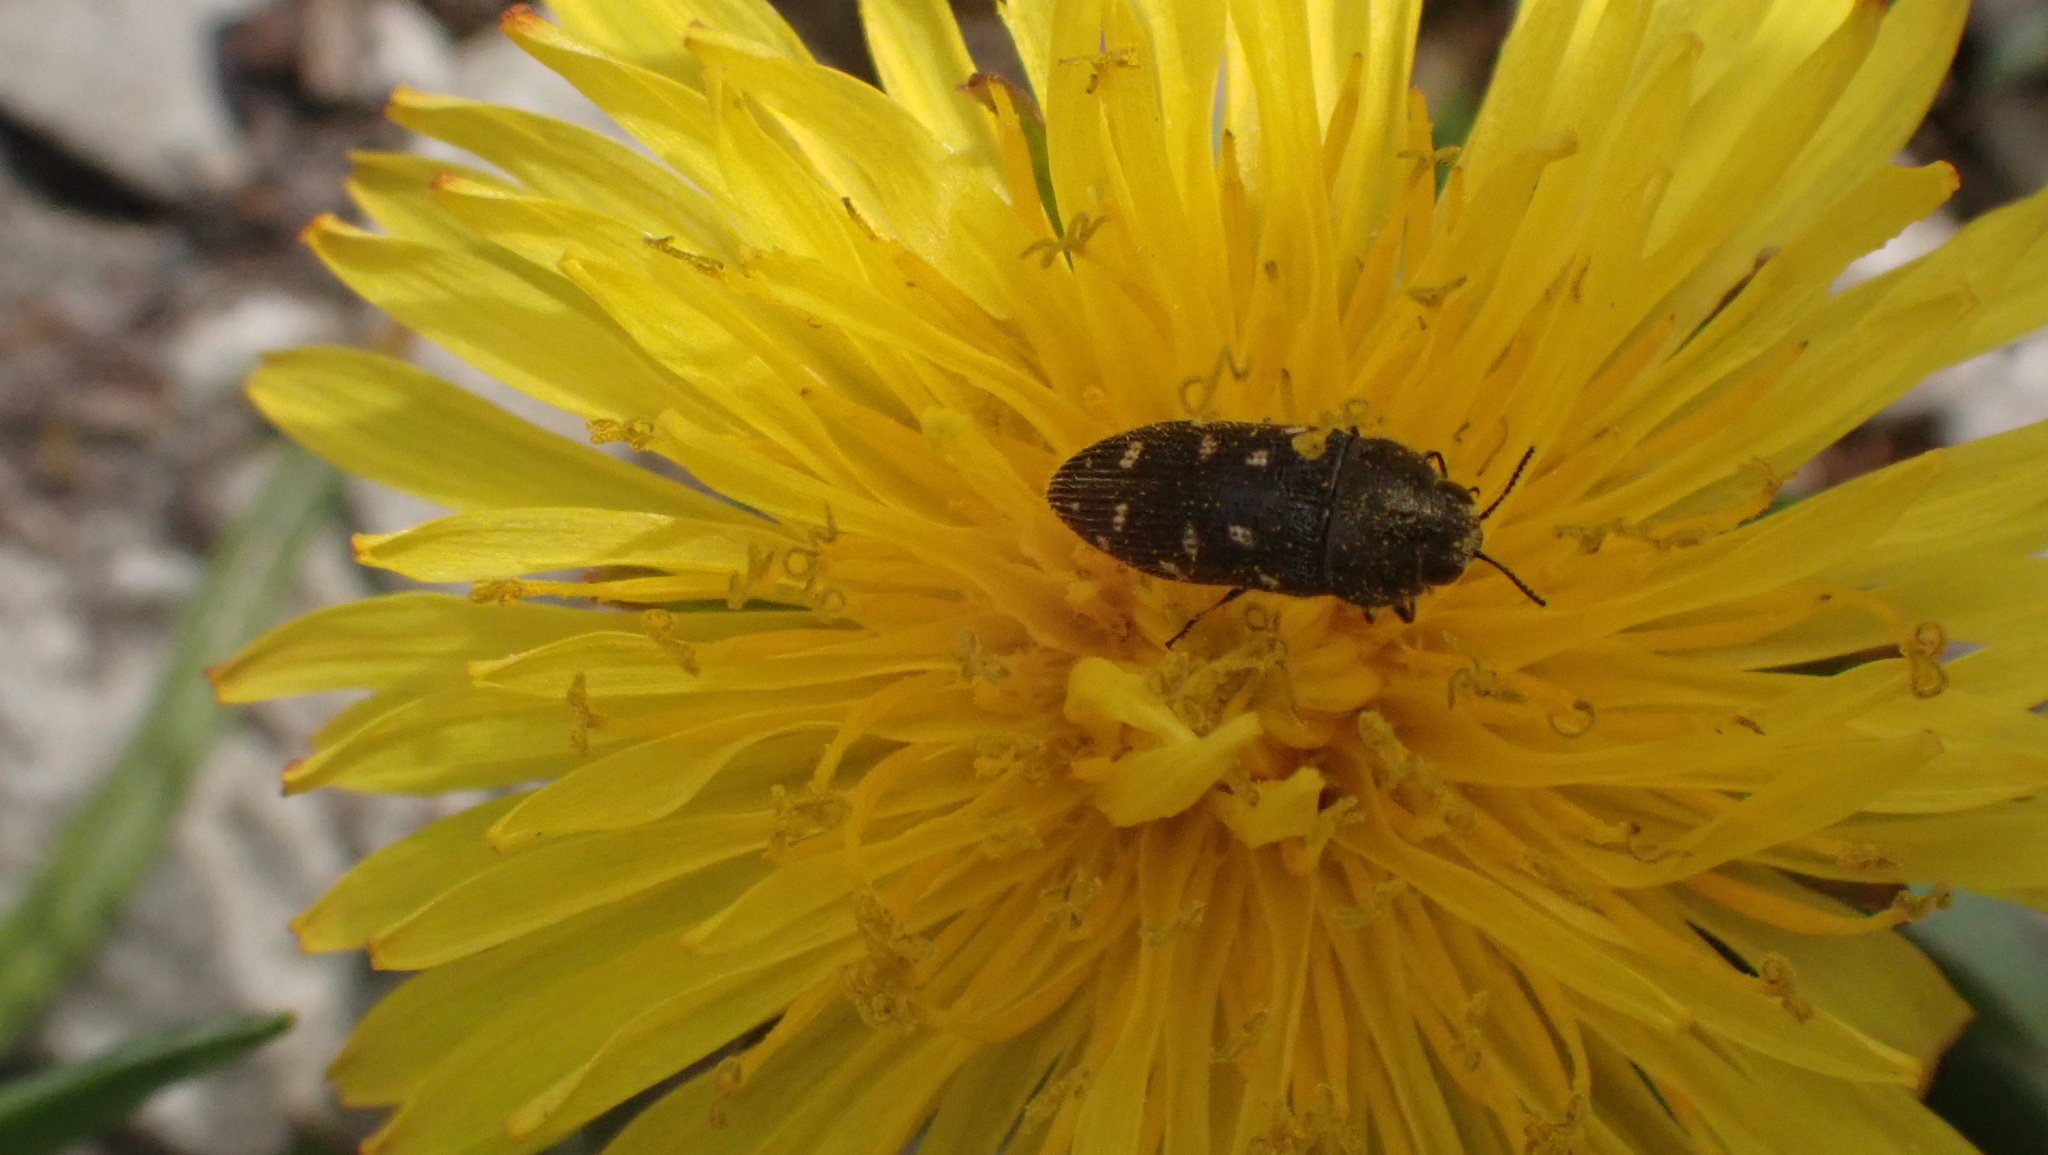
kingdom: Animalia
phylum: Arthropoda
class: Insecta
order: Coleoptera
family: Buprestidae
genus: Acmaeodera
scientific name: Acmaeodera tubulus
